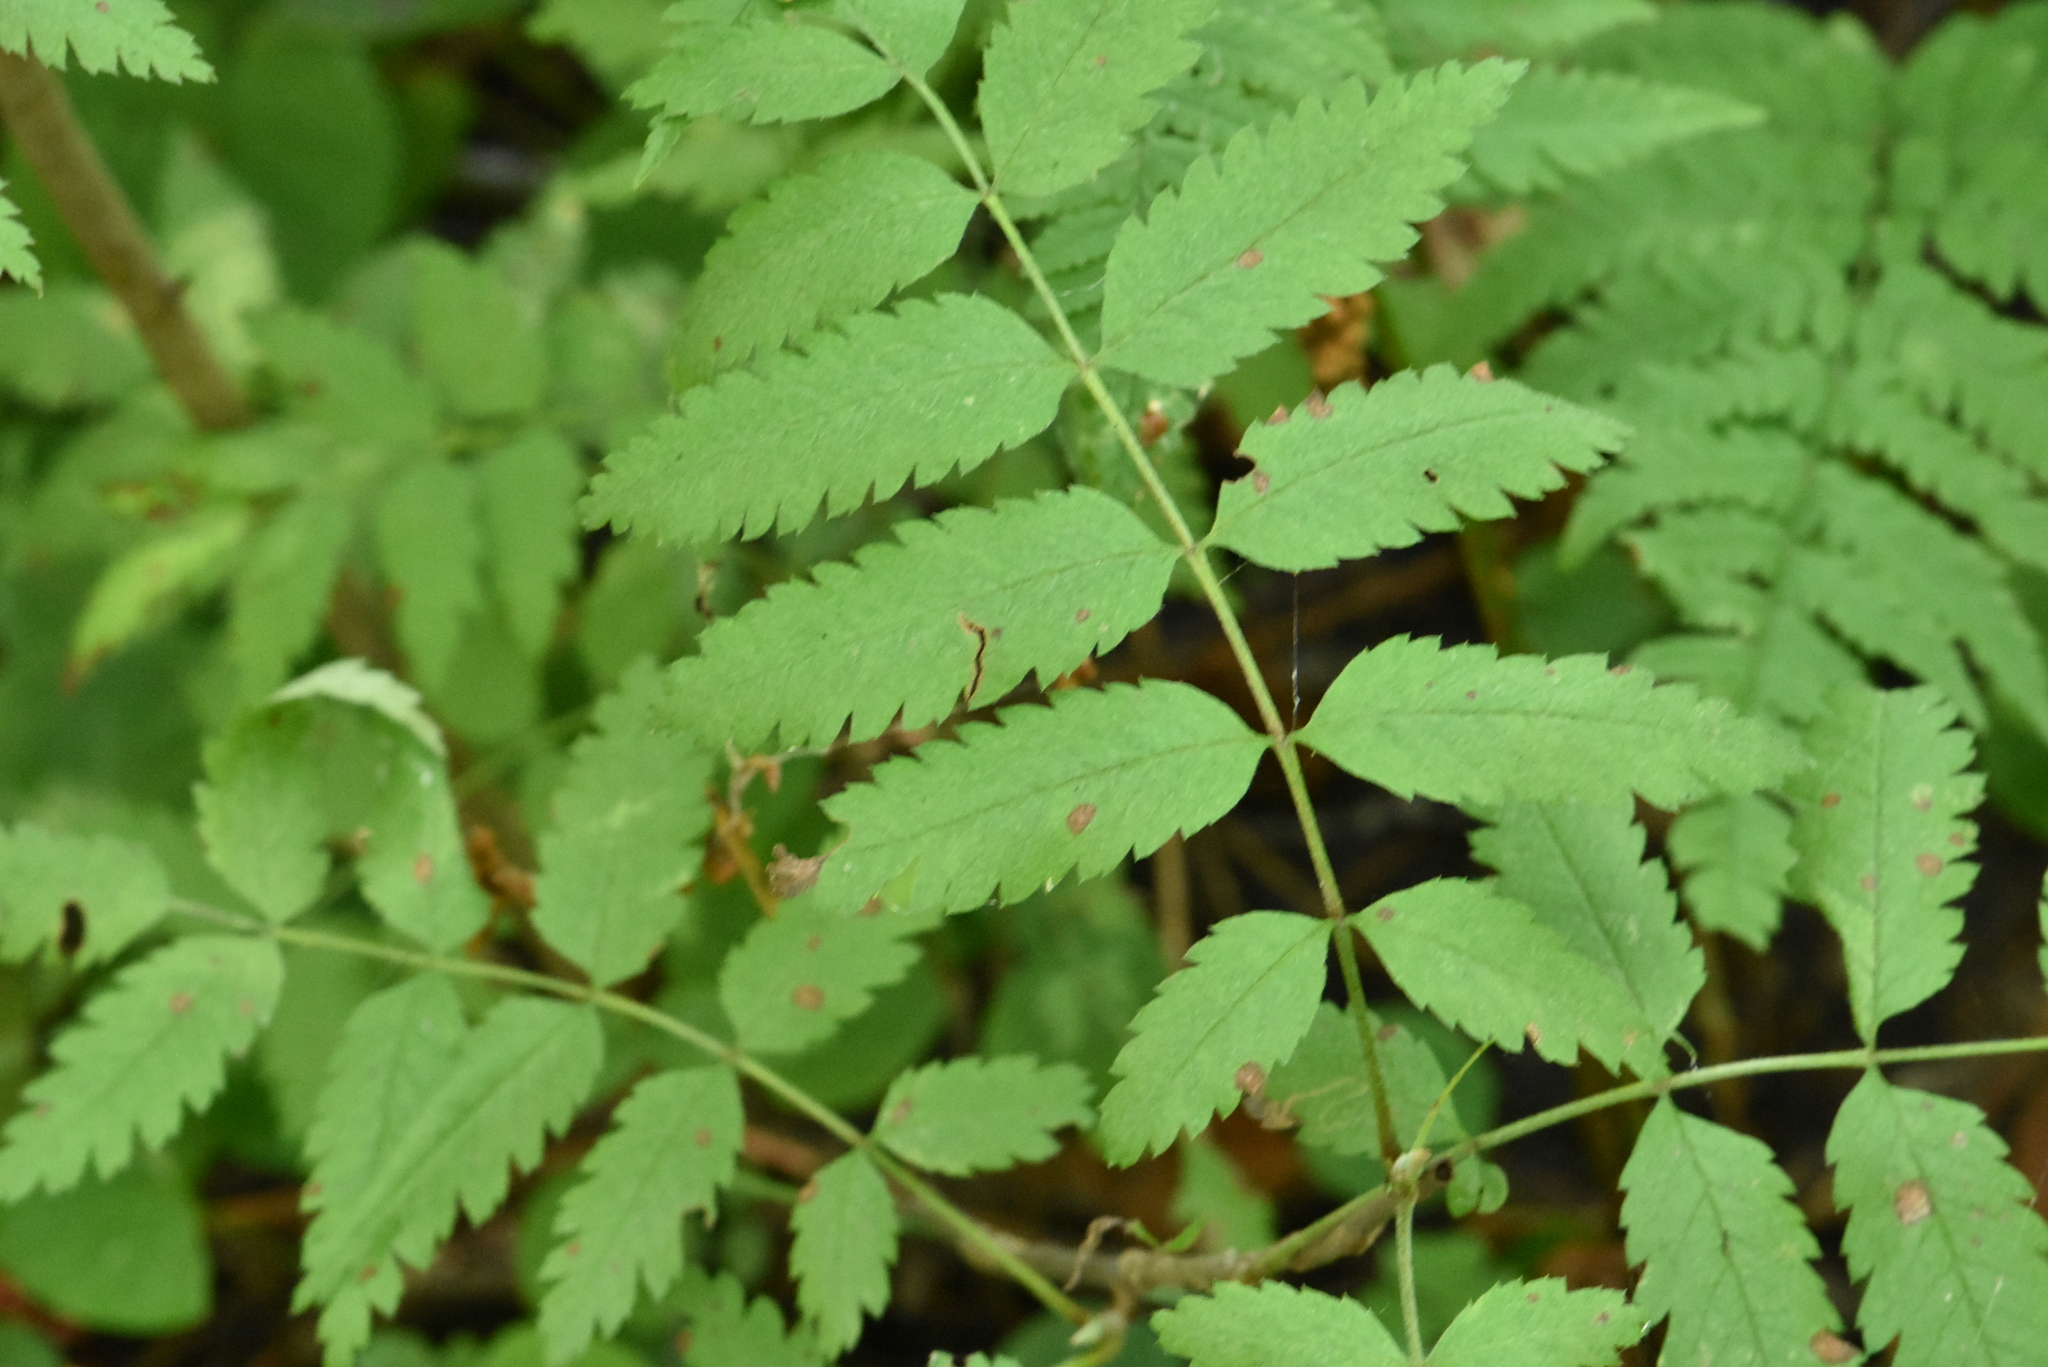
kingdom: Plantae
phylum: Tracheophyta
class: Magnoliopsida
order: Rosales
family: Rosaceae
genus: Sorbus
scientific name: Sorbus aucuparia
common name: Rowan
